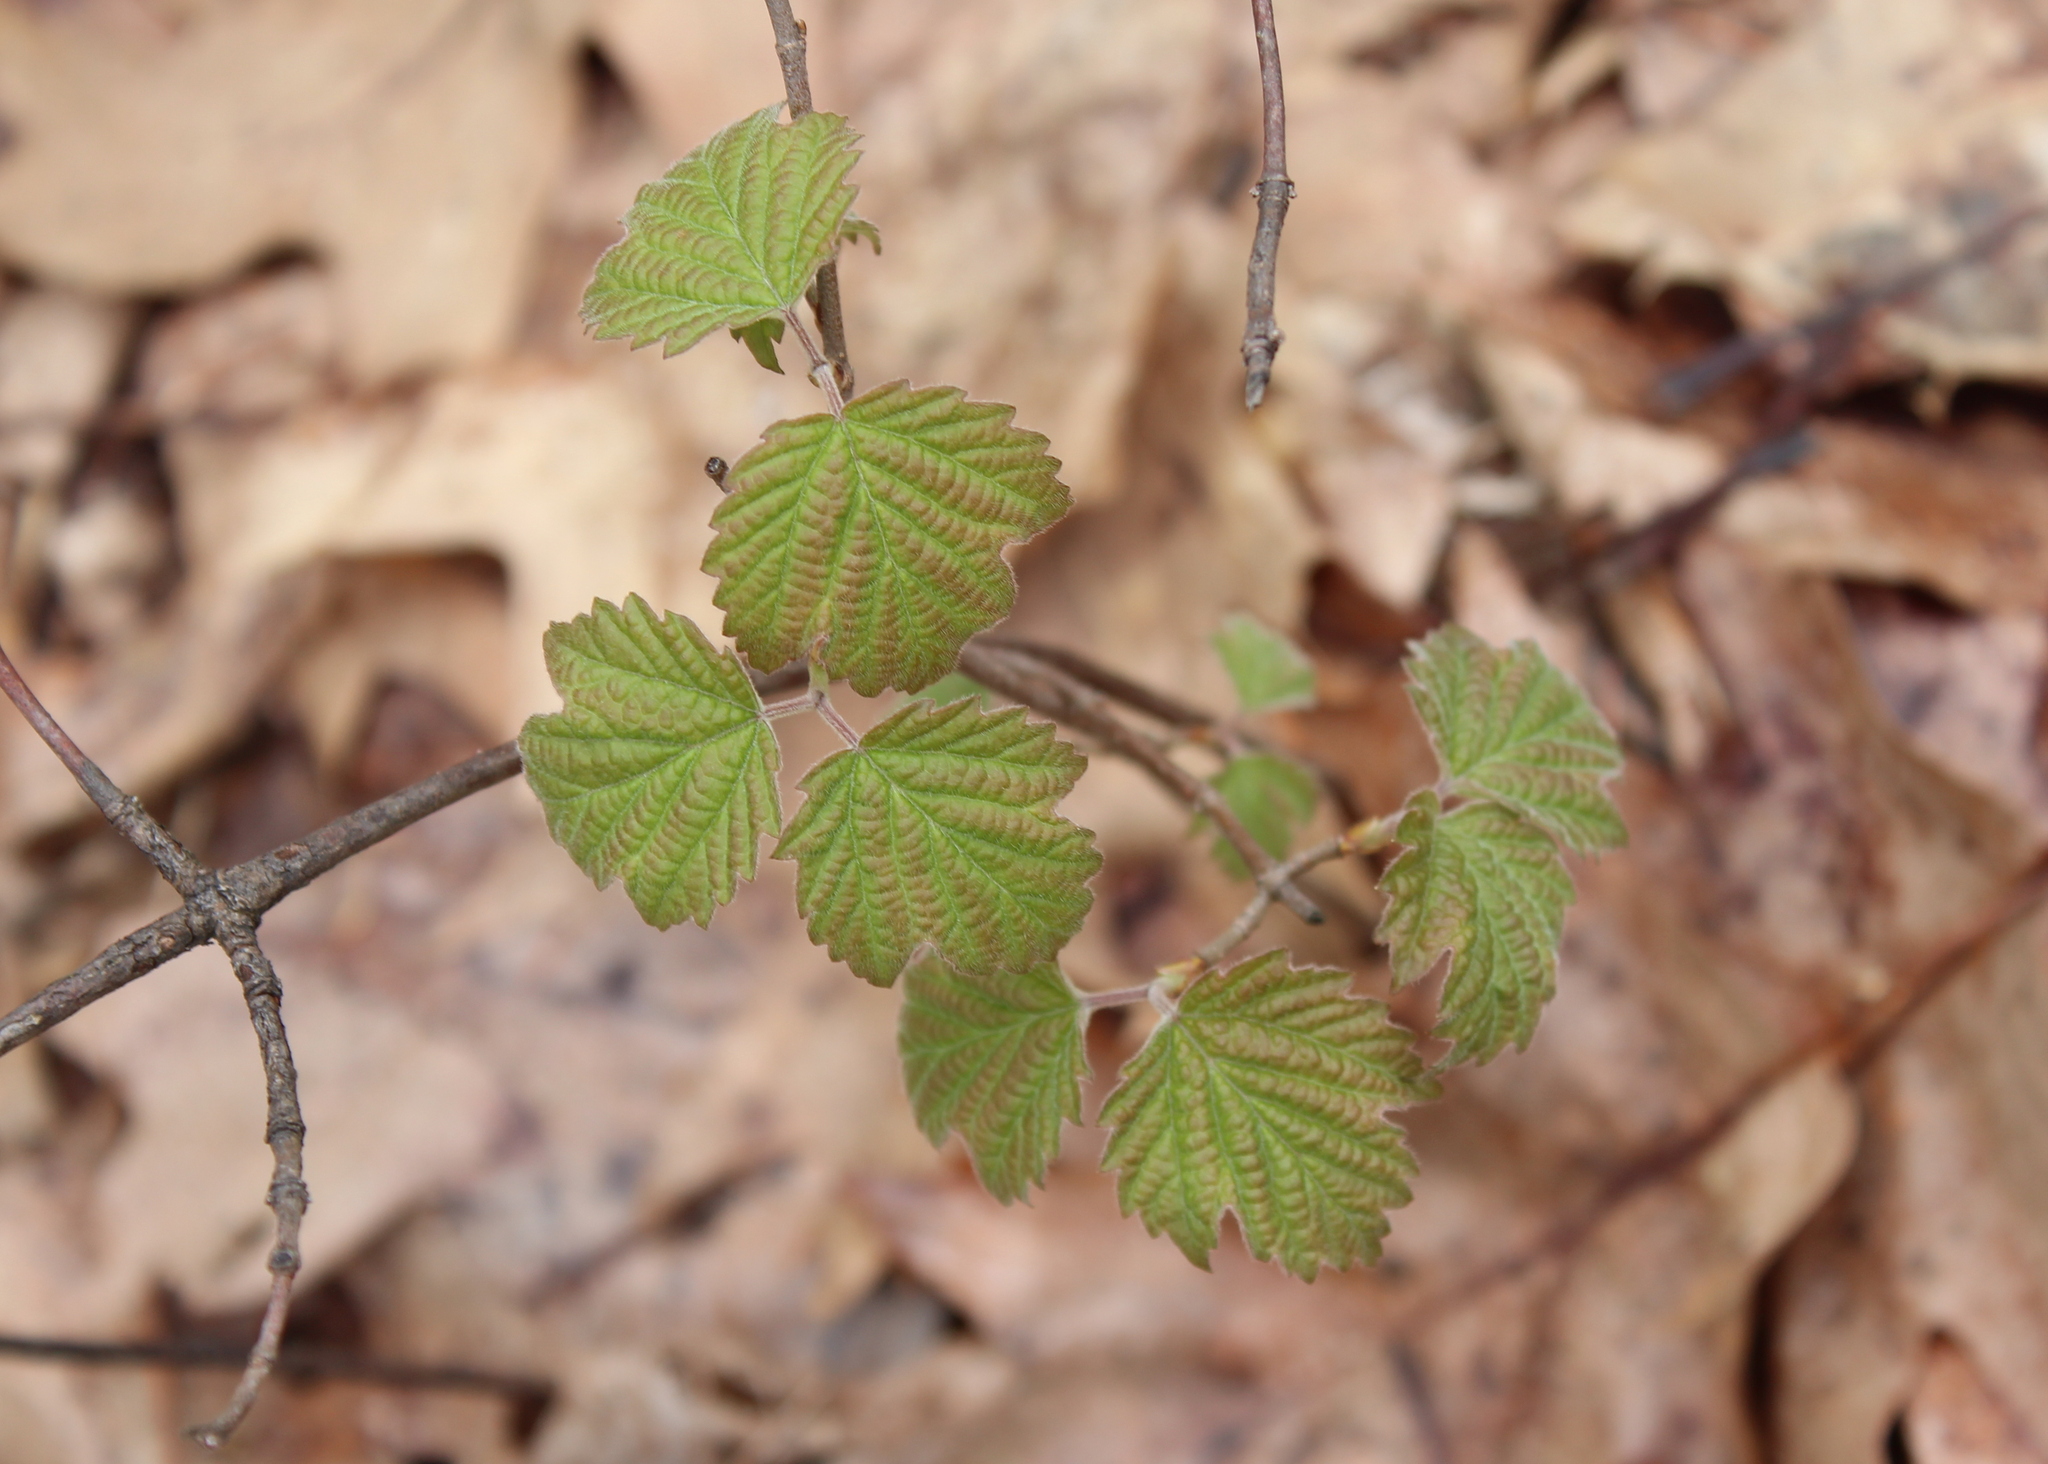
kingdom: Plantae
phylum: Tracheophyta
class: Magnoliopsida
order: Dipsacales
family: Viburnaceae
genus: Viburnum
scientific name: Viburnum acerifolium
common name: Dockmackie
